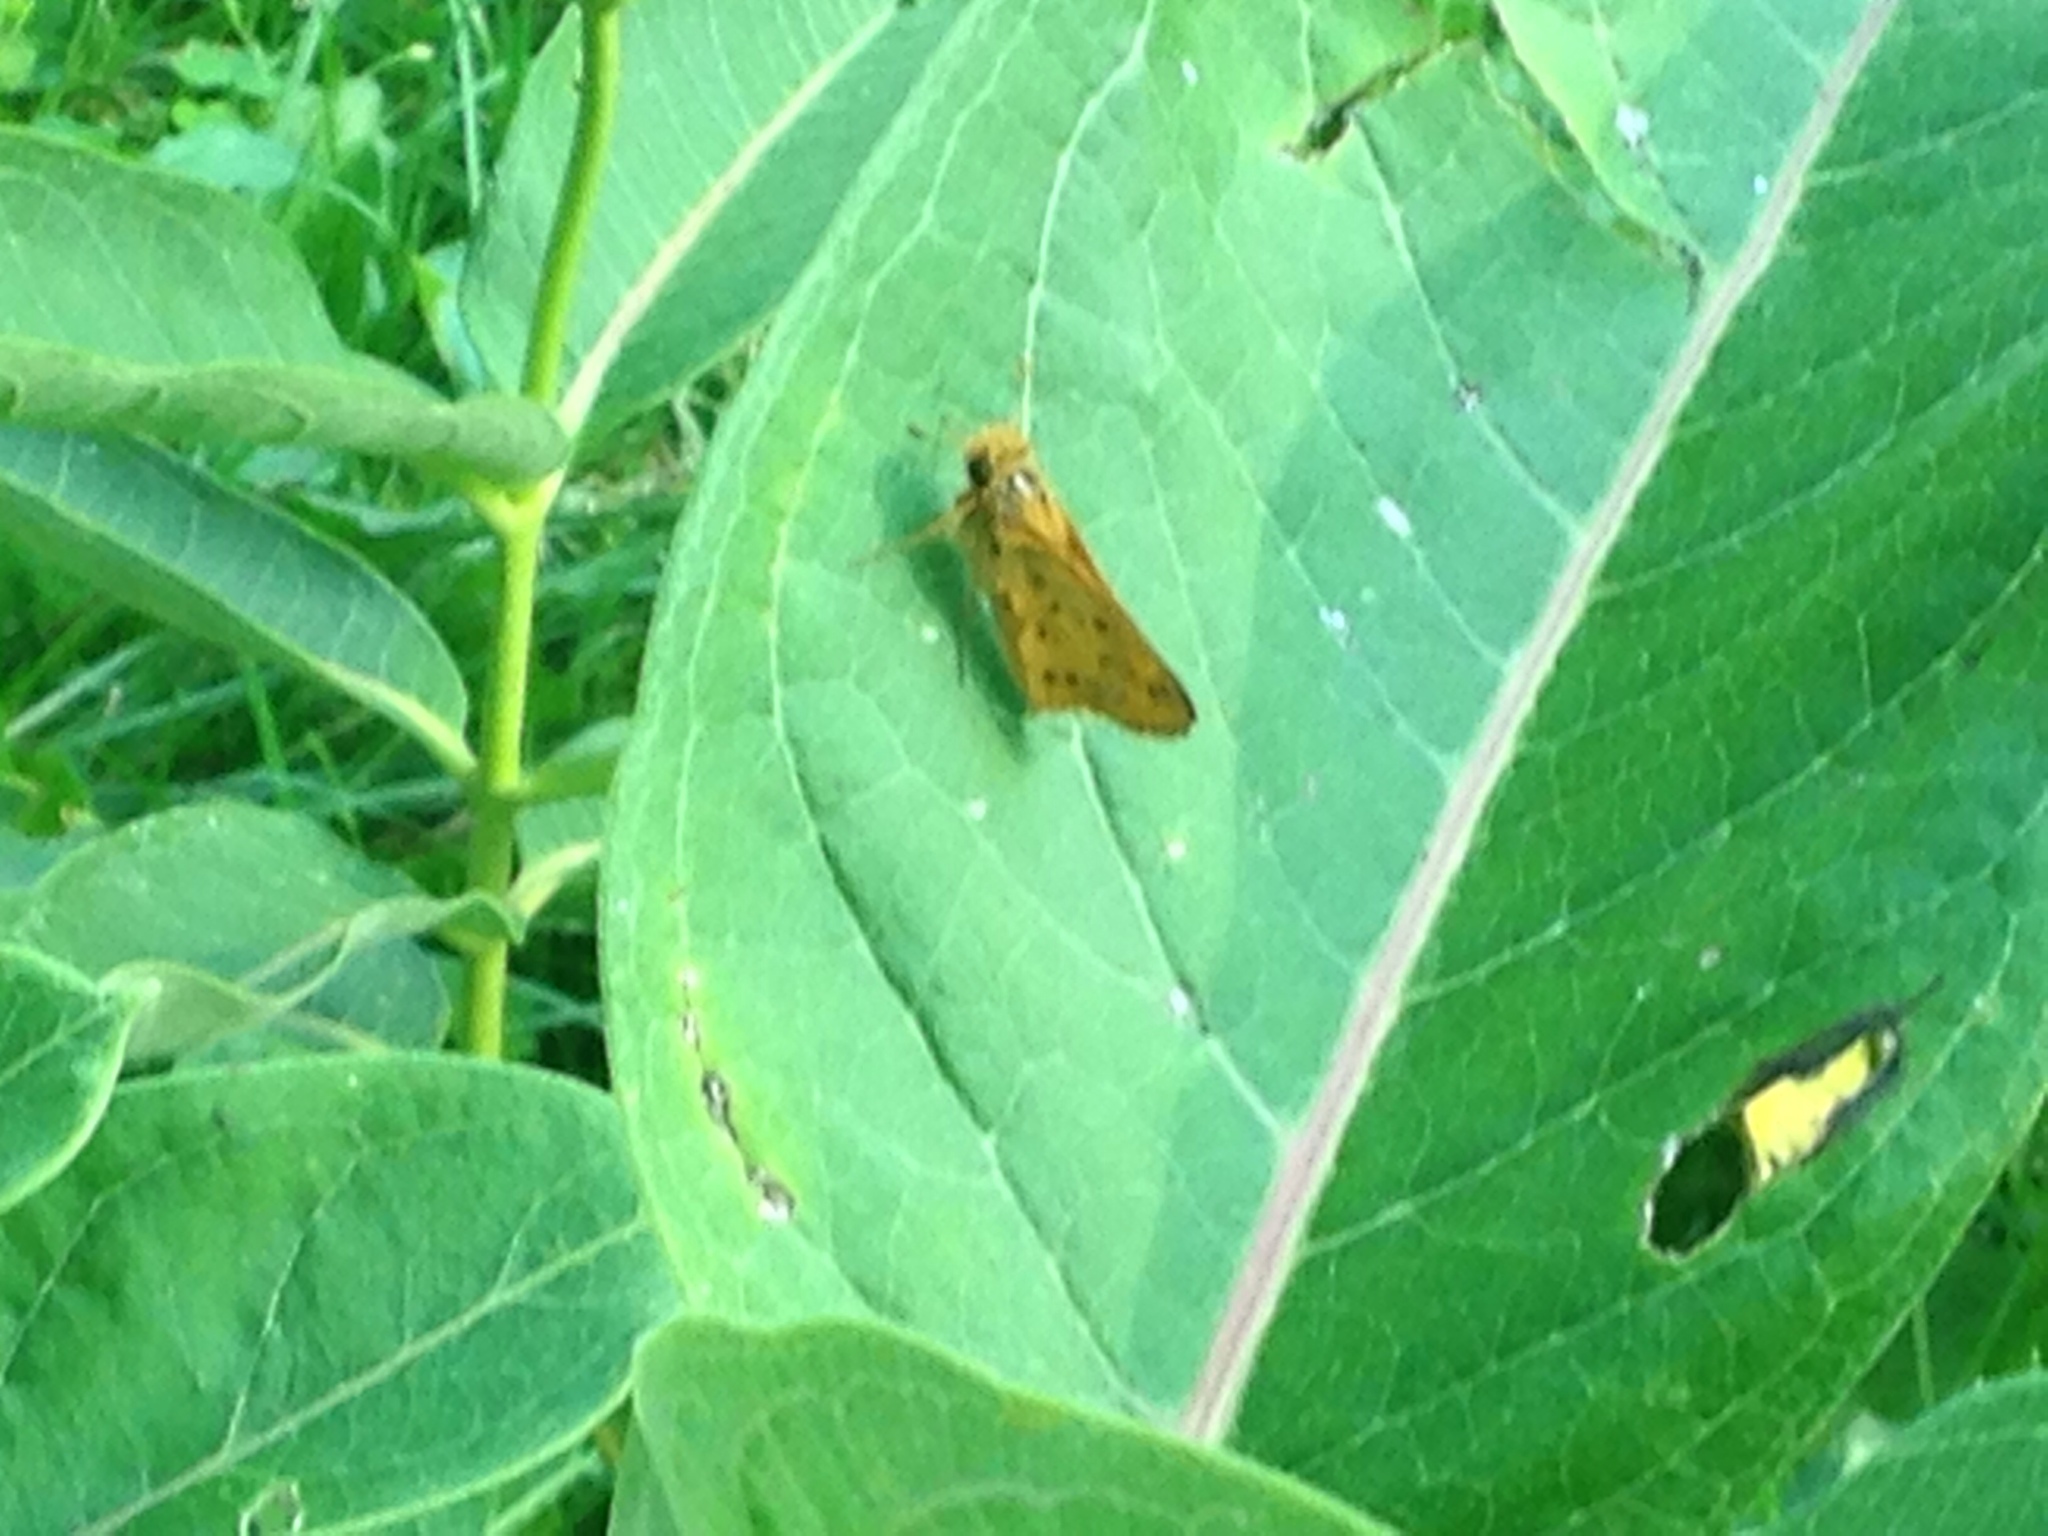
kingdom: Animalia
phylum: Arthropoda
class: Insecta
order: Lepidoptera
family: Hesperiidae
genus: Hylephila
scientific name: Hylephila phyleus
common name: Fiery skipper
